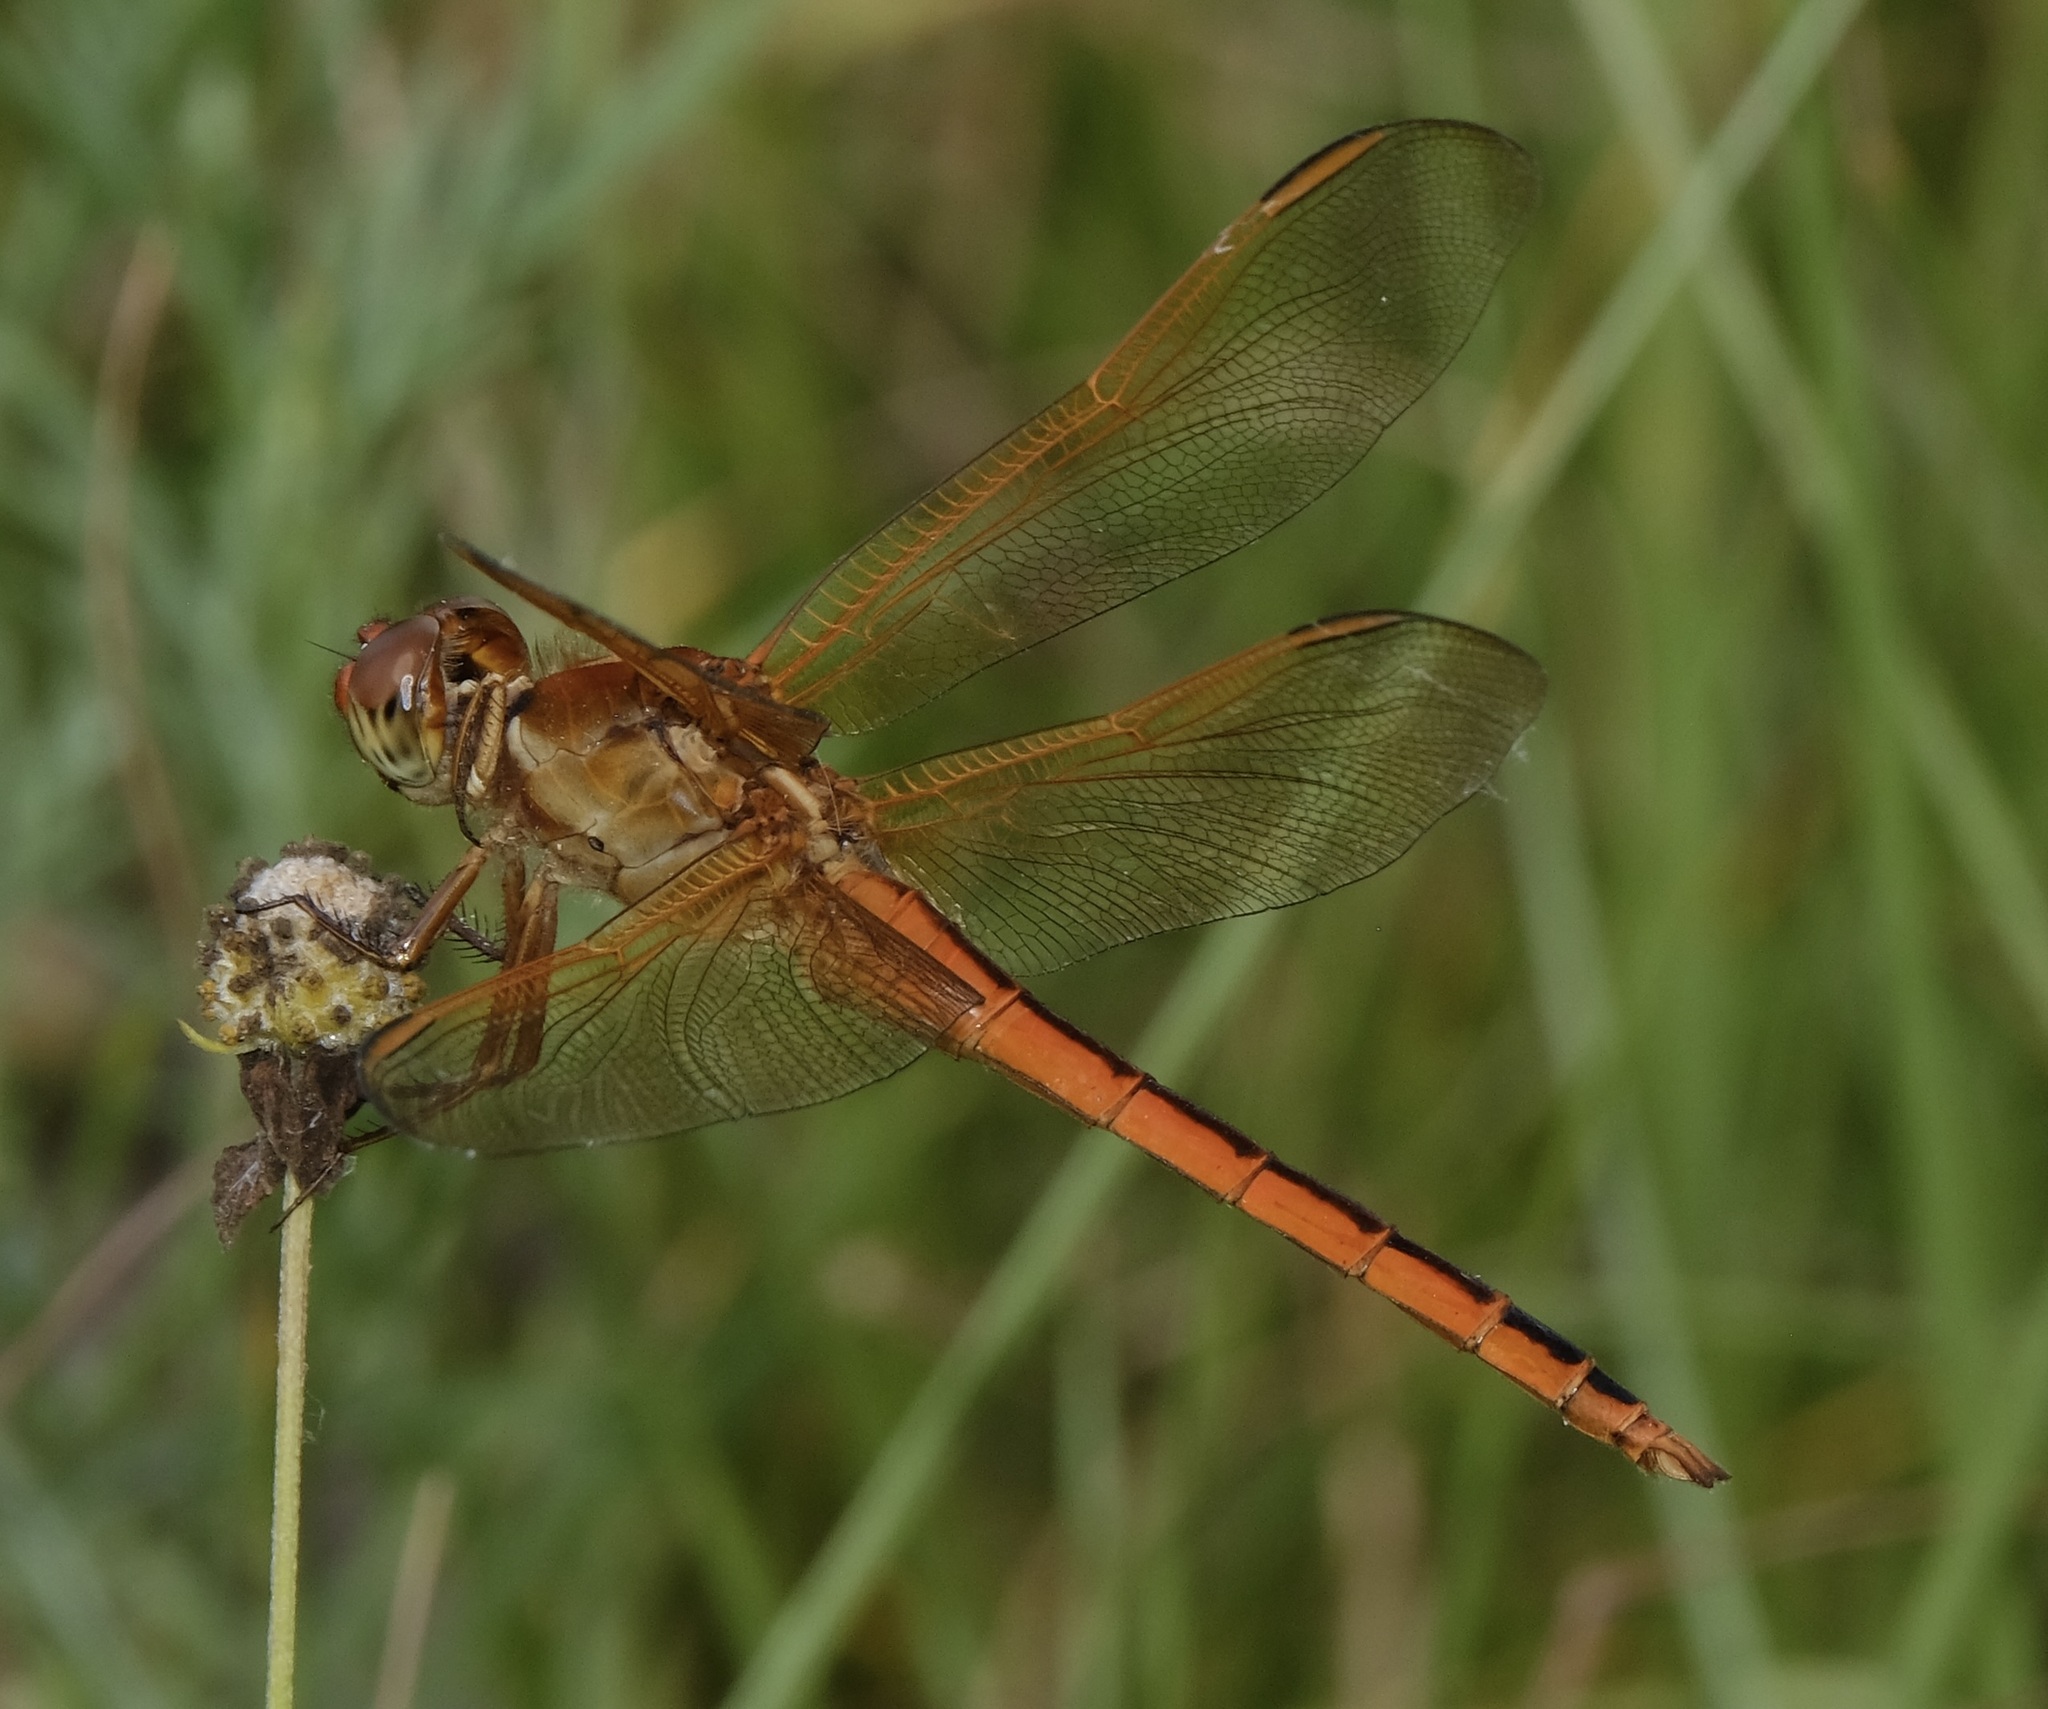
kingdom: Animalia
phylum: Arthropoda
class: Insecta
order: Odonata
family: Libellulidae
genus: Libellula
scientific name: Libellula needhami
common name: Needham's skimmer
